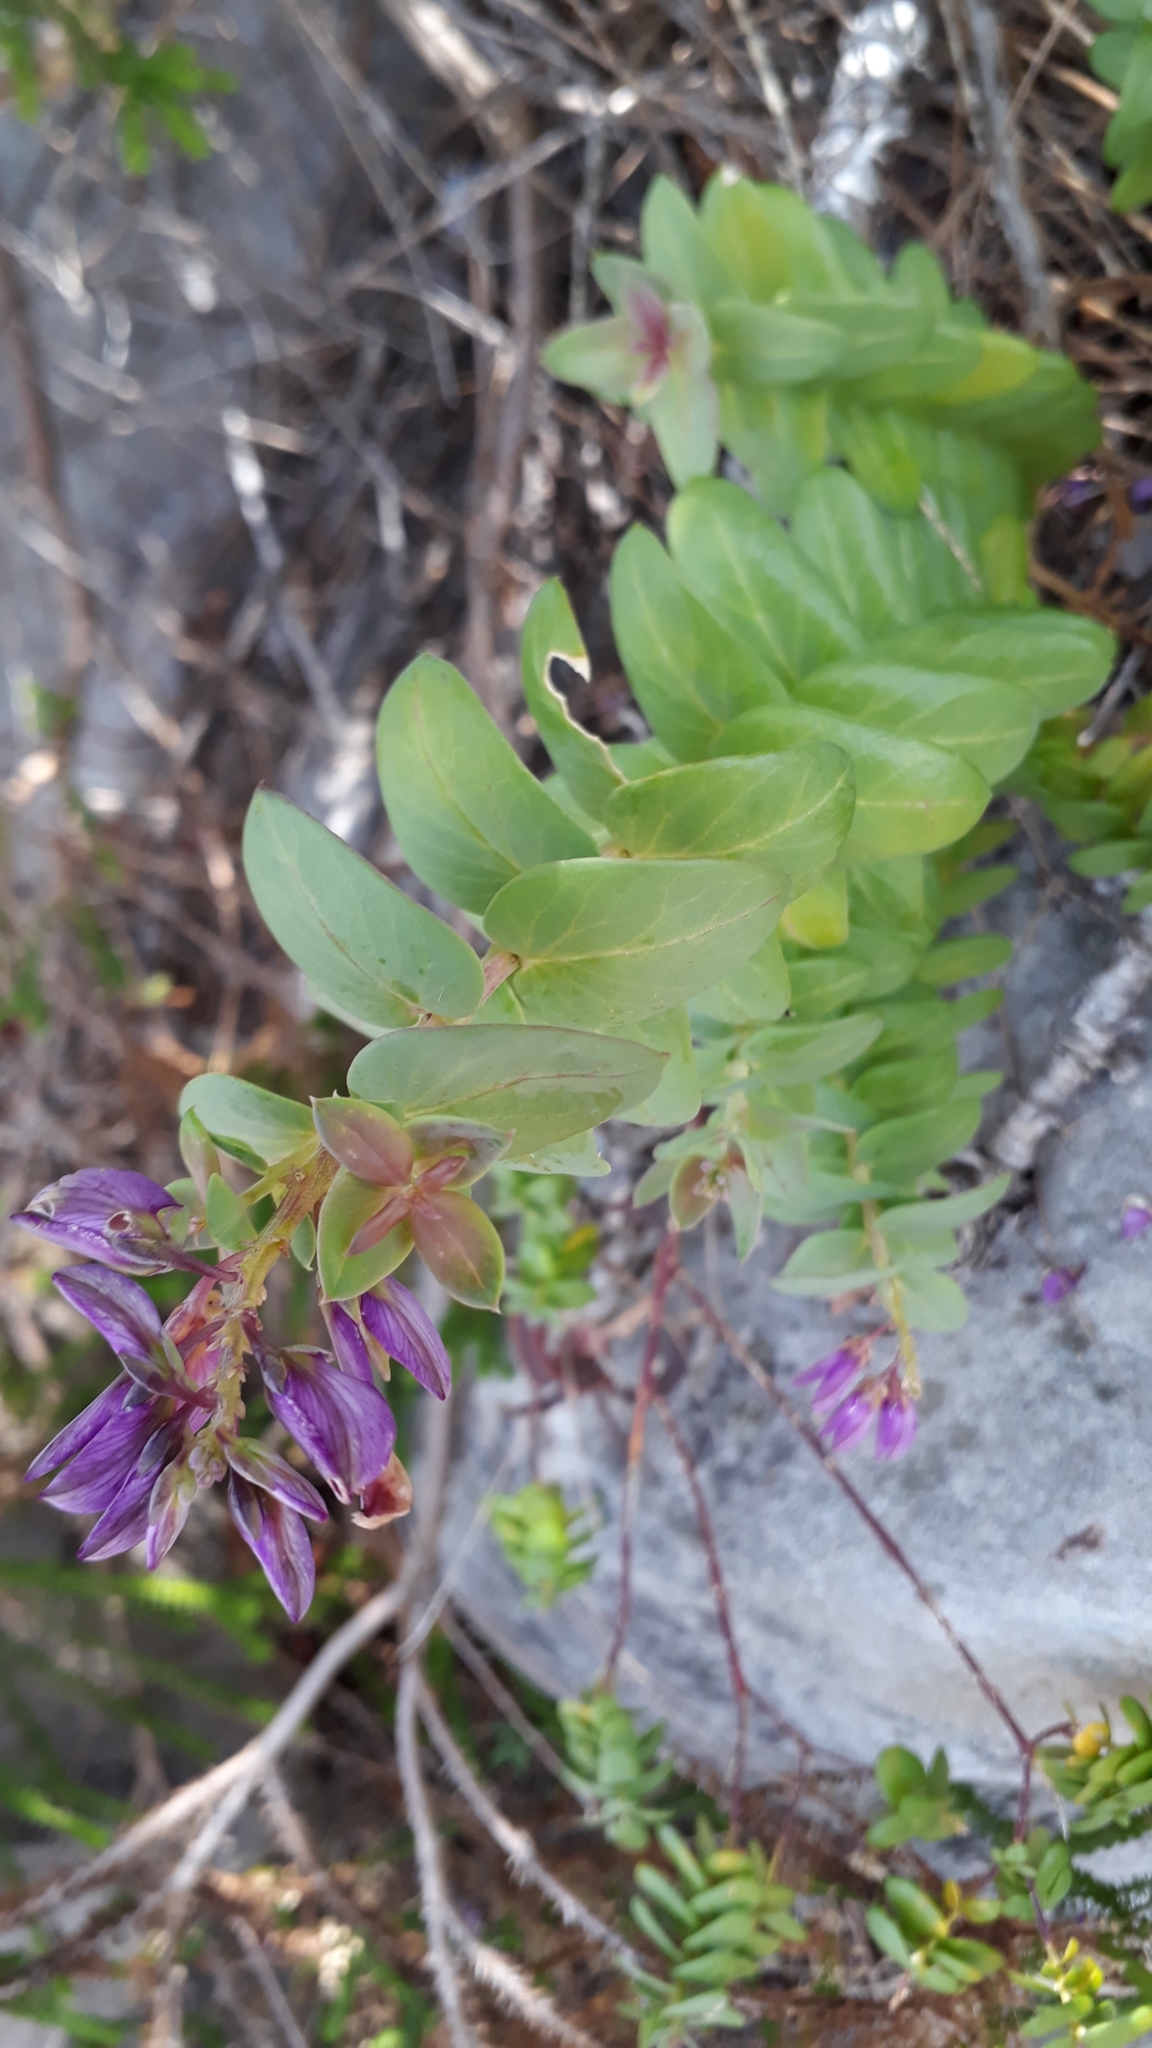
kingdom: Plantae
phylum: Tracheophyta
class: Magnoliopsida
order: Fabales
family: Polygalaceae
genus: Polygala
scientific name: Polygala fruticosa
